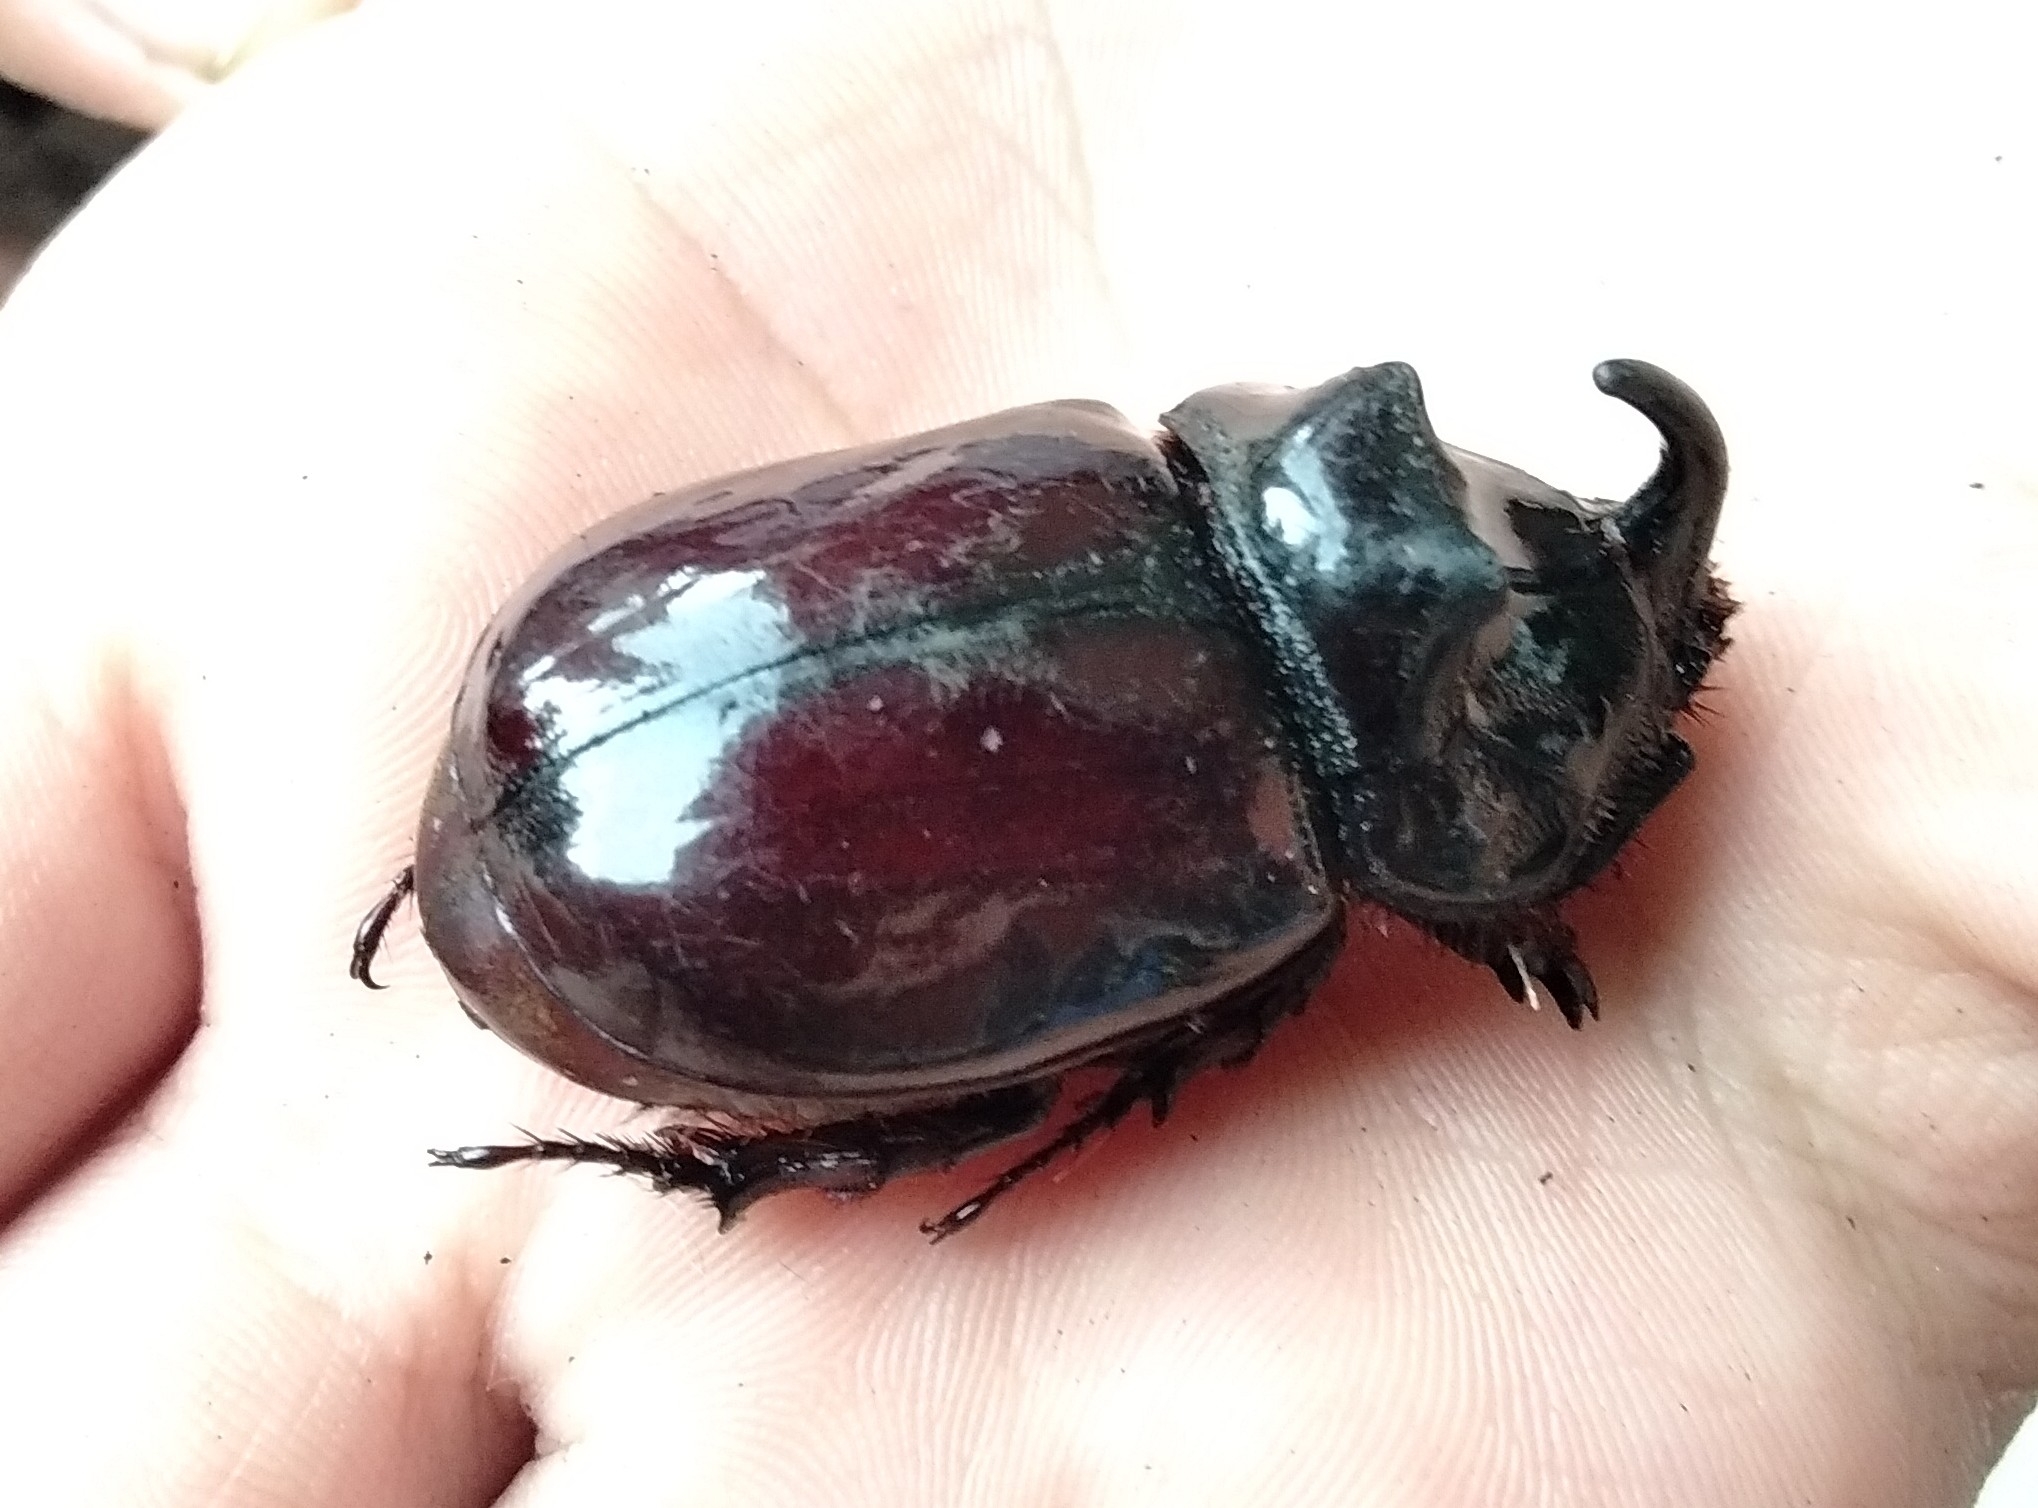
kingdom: Animalia
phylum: Arthropoda
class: Insecta
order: Coleoptera
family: Scarabaeidae
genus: Oryctes
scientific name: Oryctes nasicornis
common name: European rhinoceros beetle
